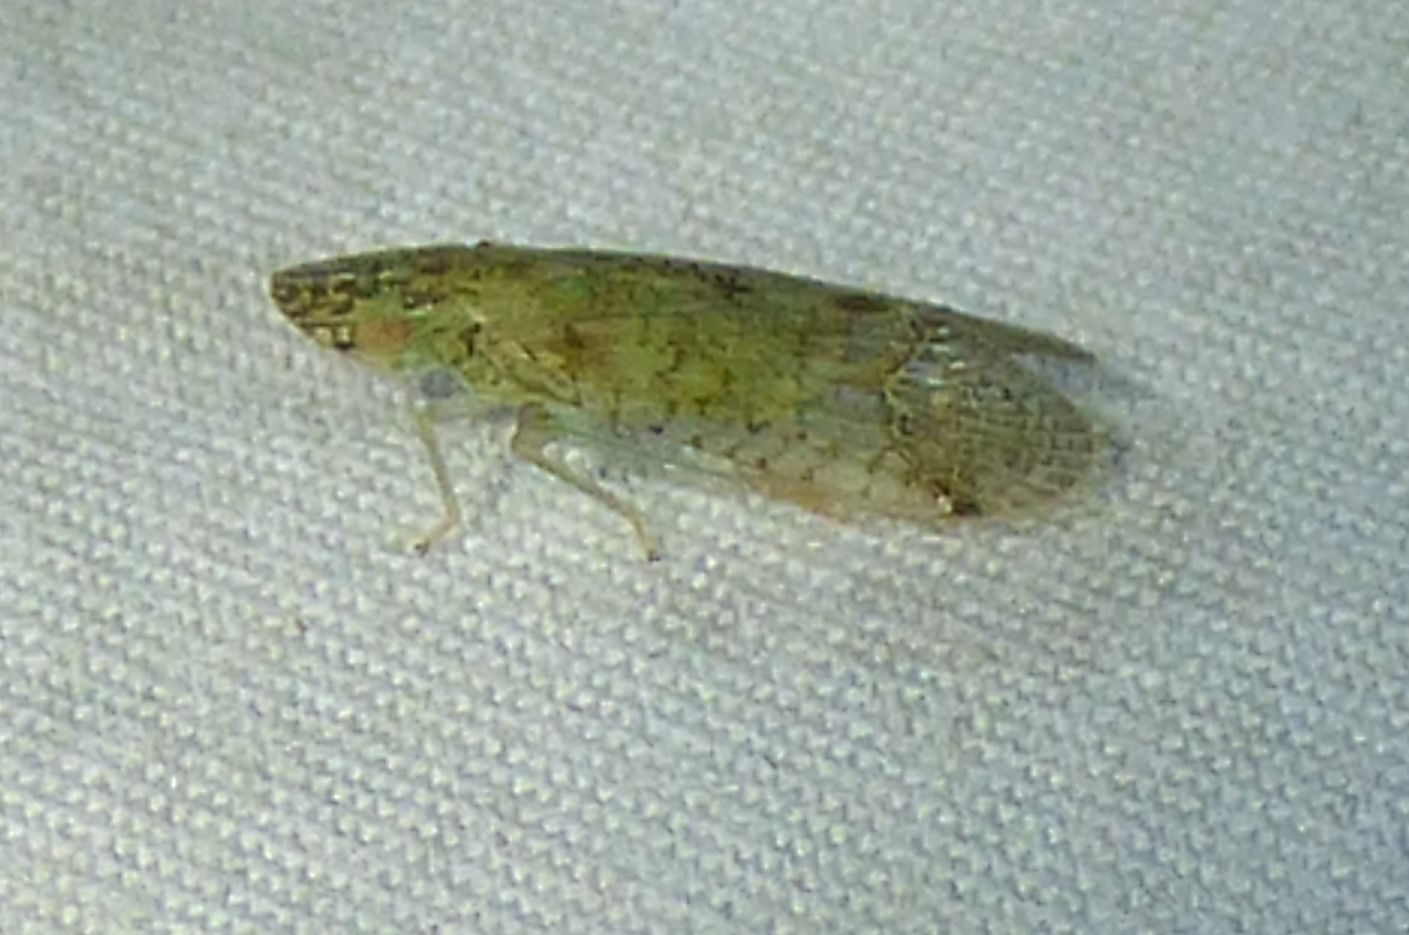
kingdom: Animalia
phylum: Arthropoda
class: Insecta
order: Hemiptera
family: Tropiduchidae
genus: Pelitropis
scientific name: Pelitropis rotulata
